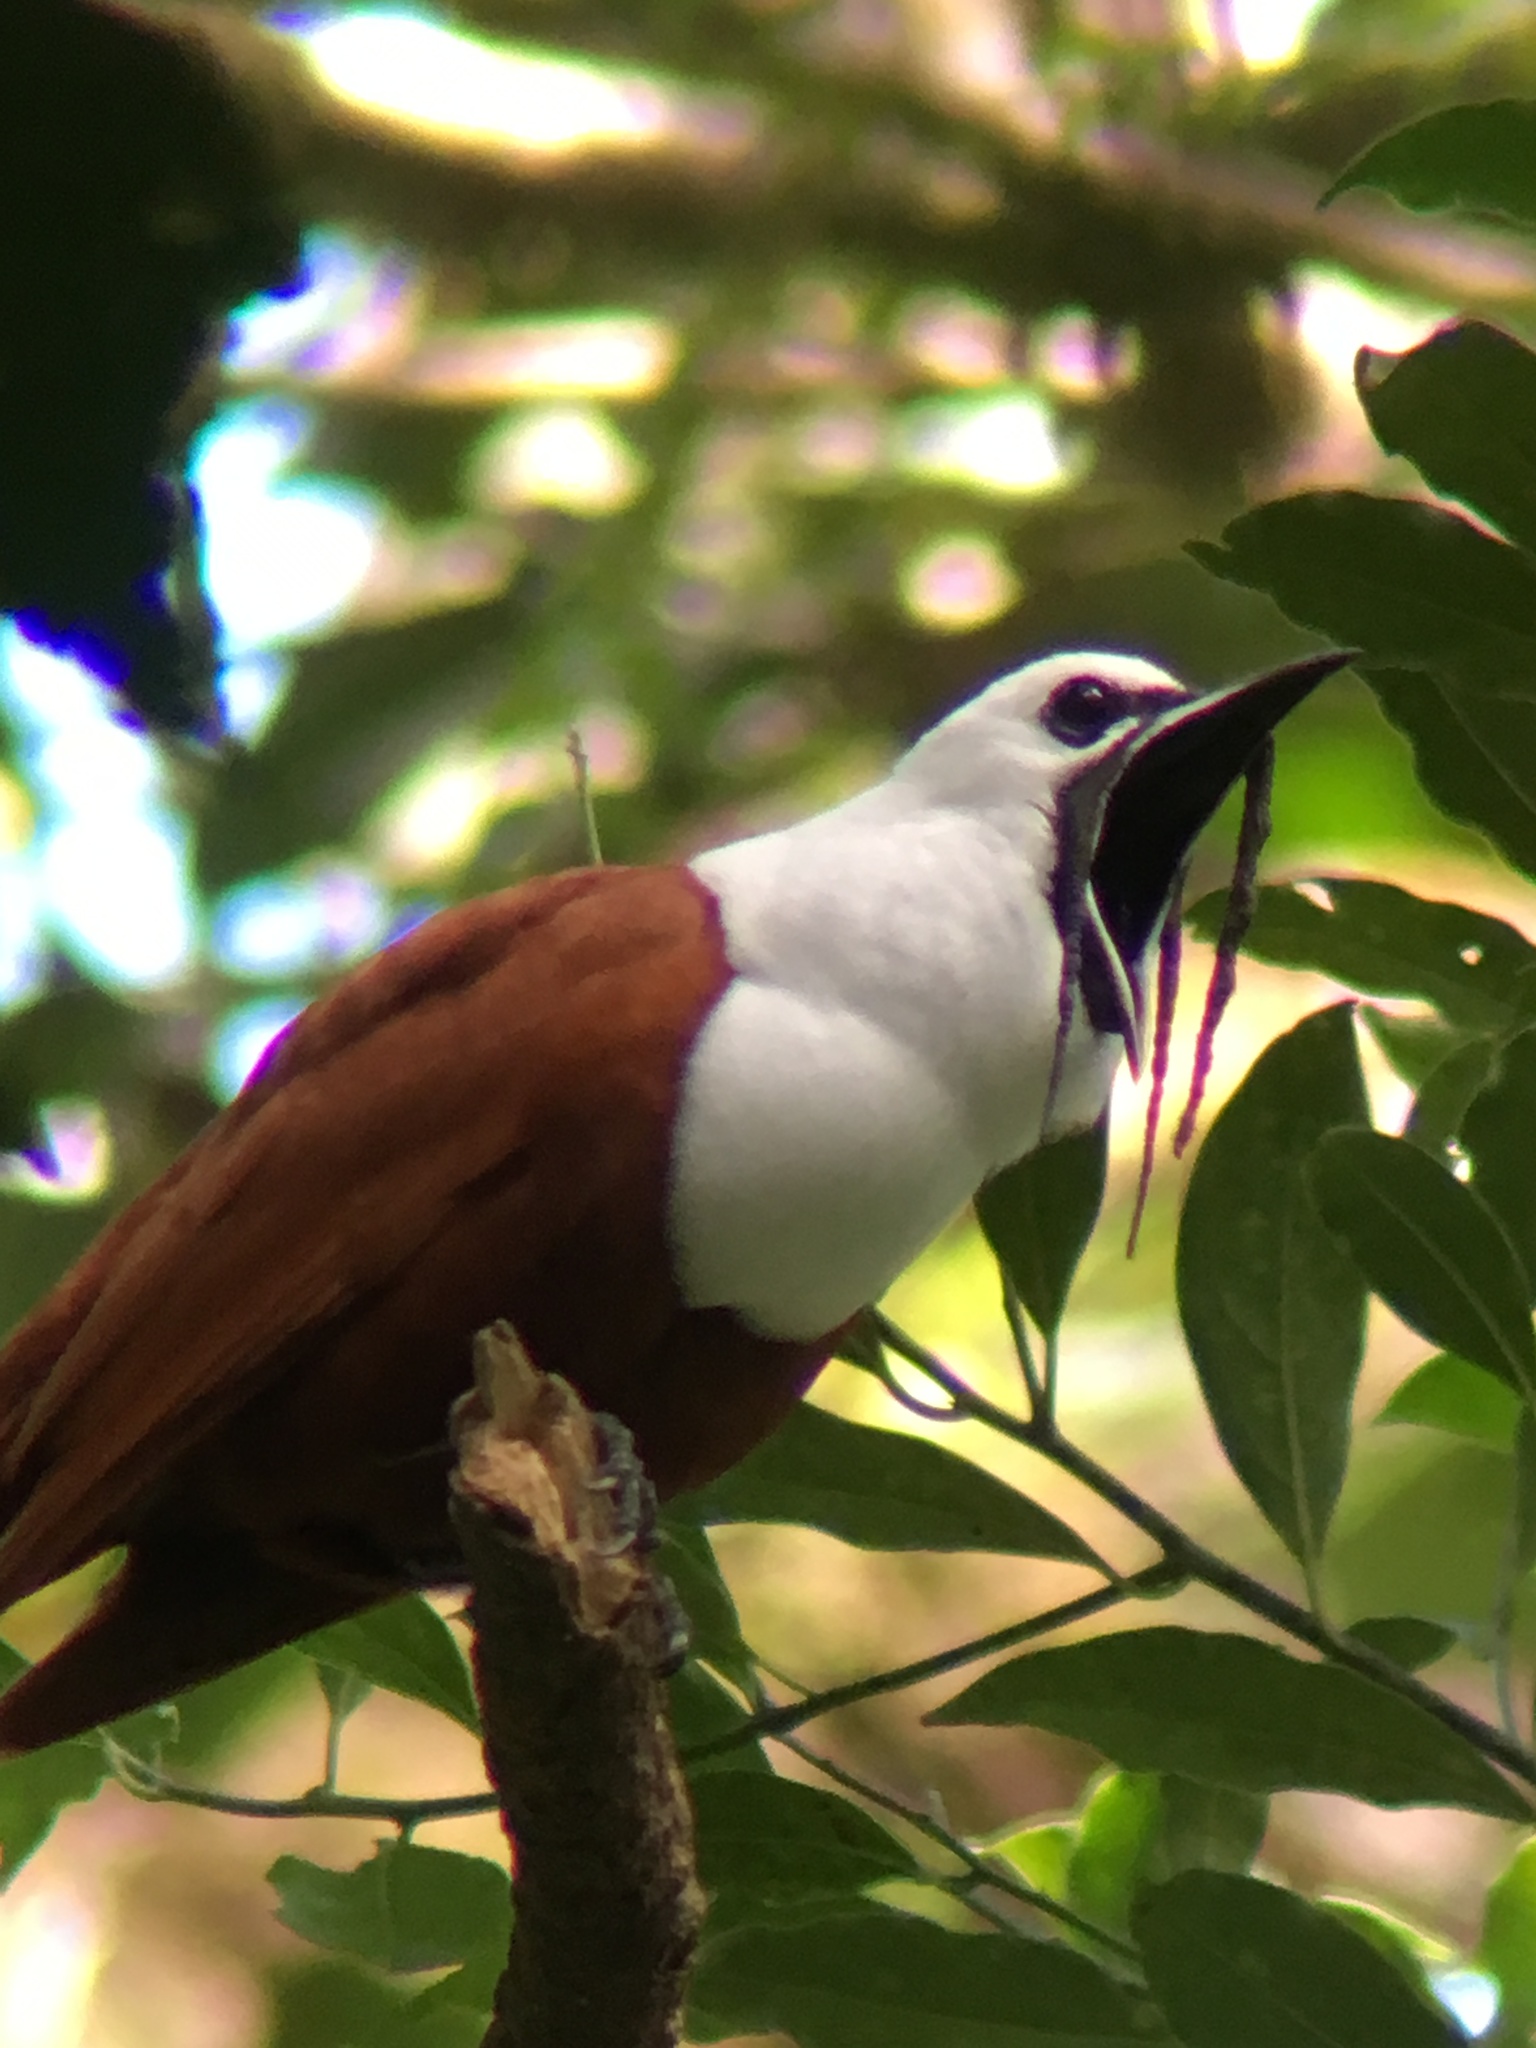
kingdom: Animalia
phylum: Chordata
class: Aves
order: Passeriformes
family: Cotingidae
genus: Procnias
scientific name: Procnias tricarunculatus
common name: Three-wattled bellbird
